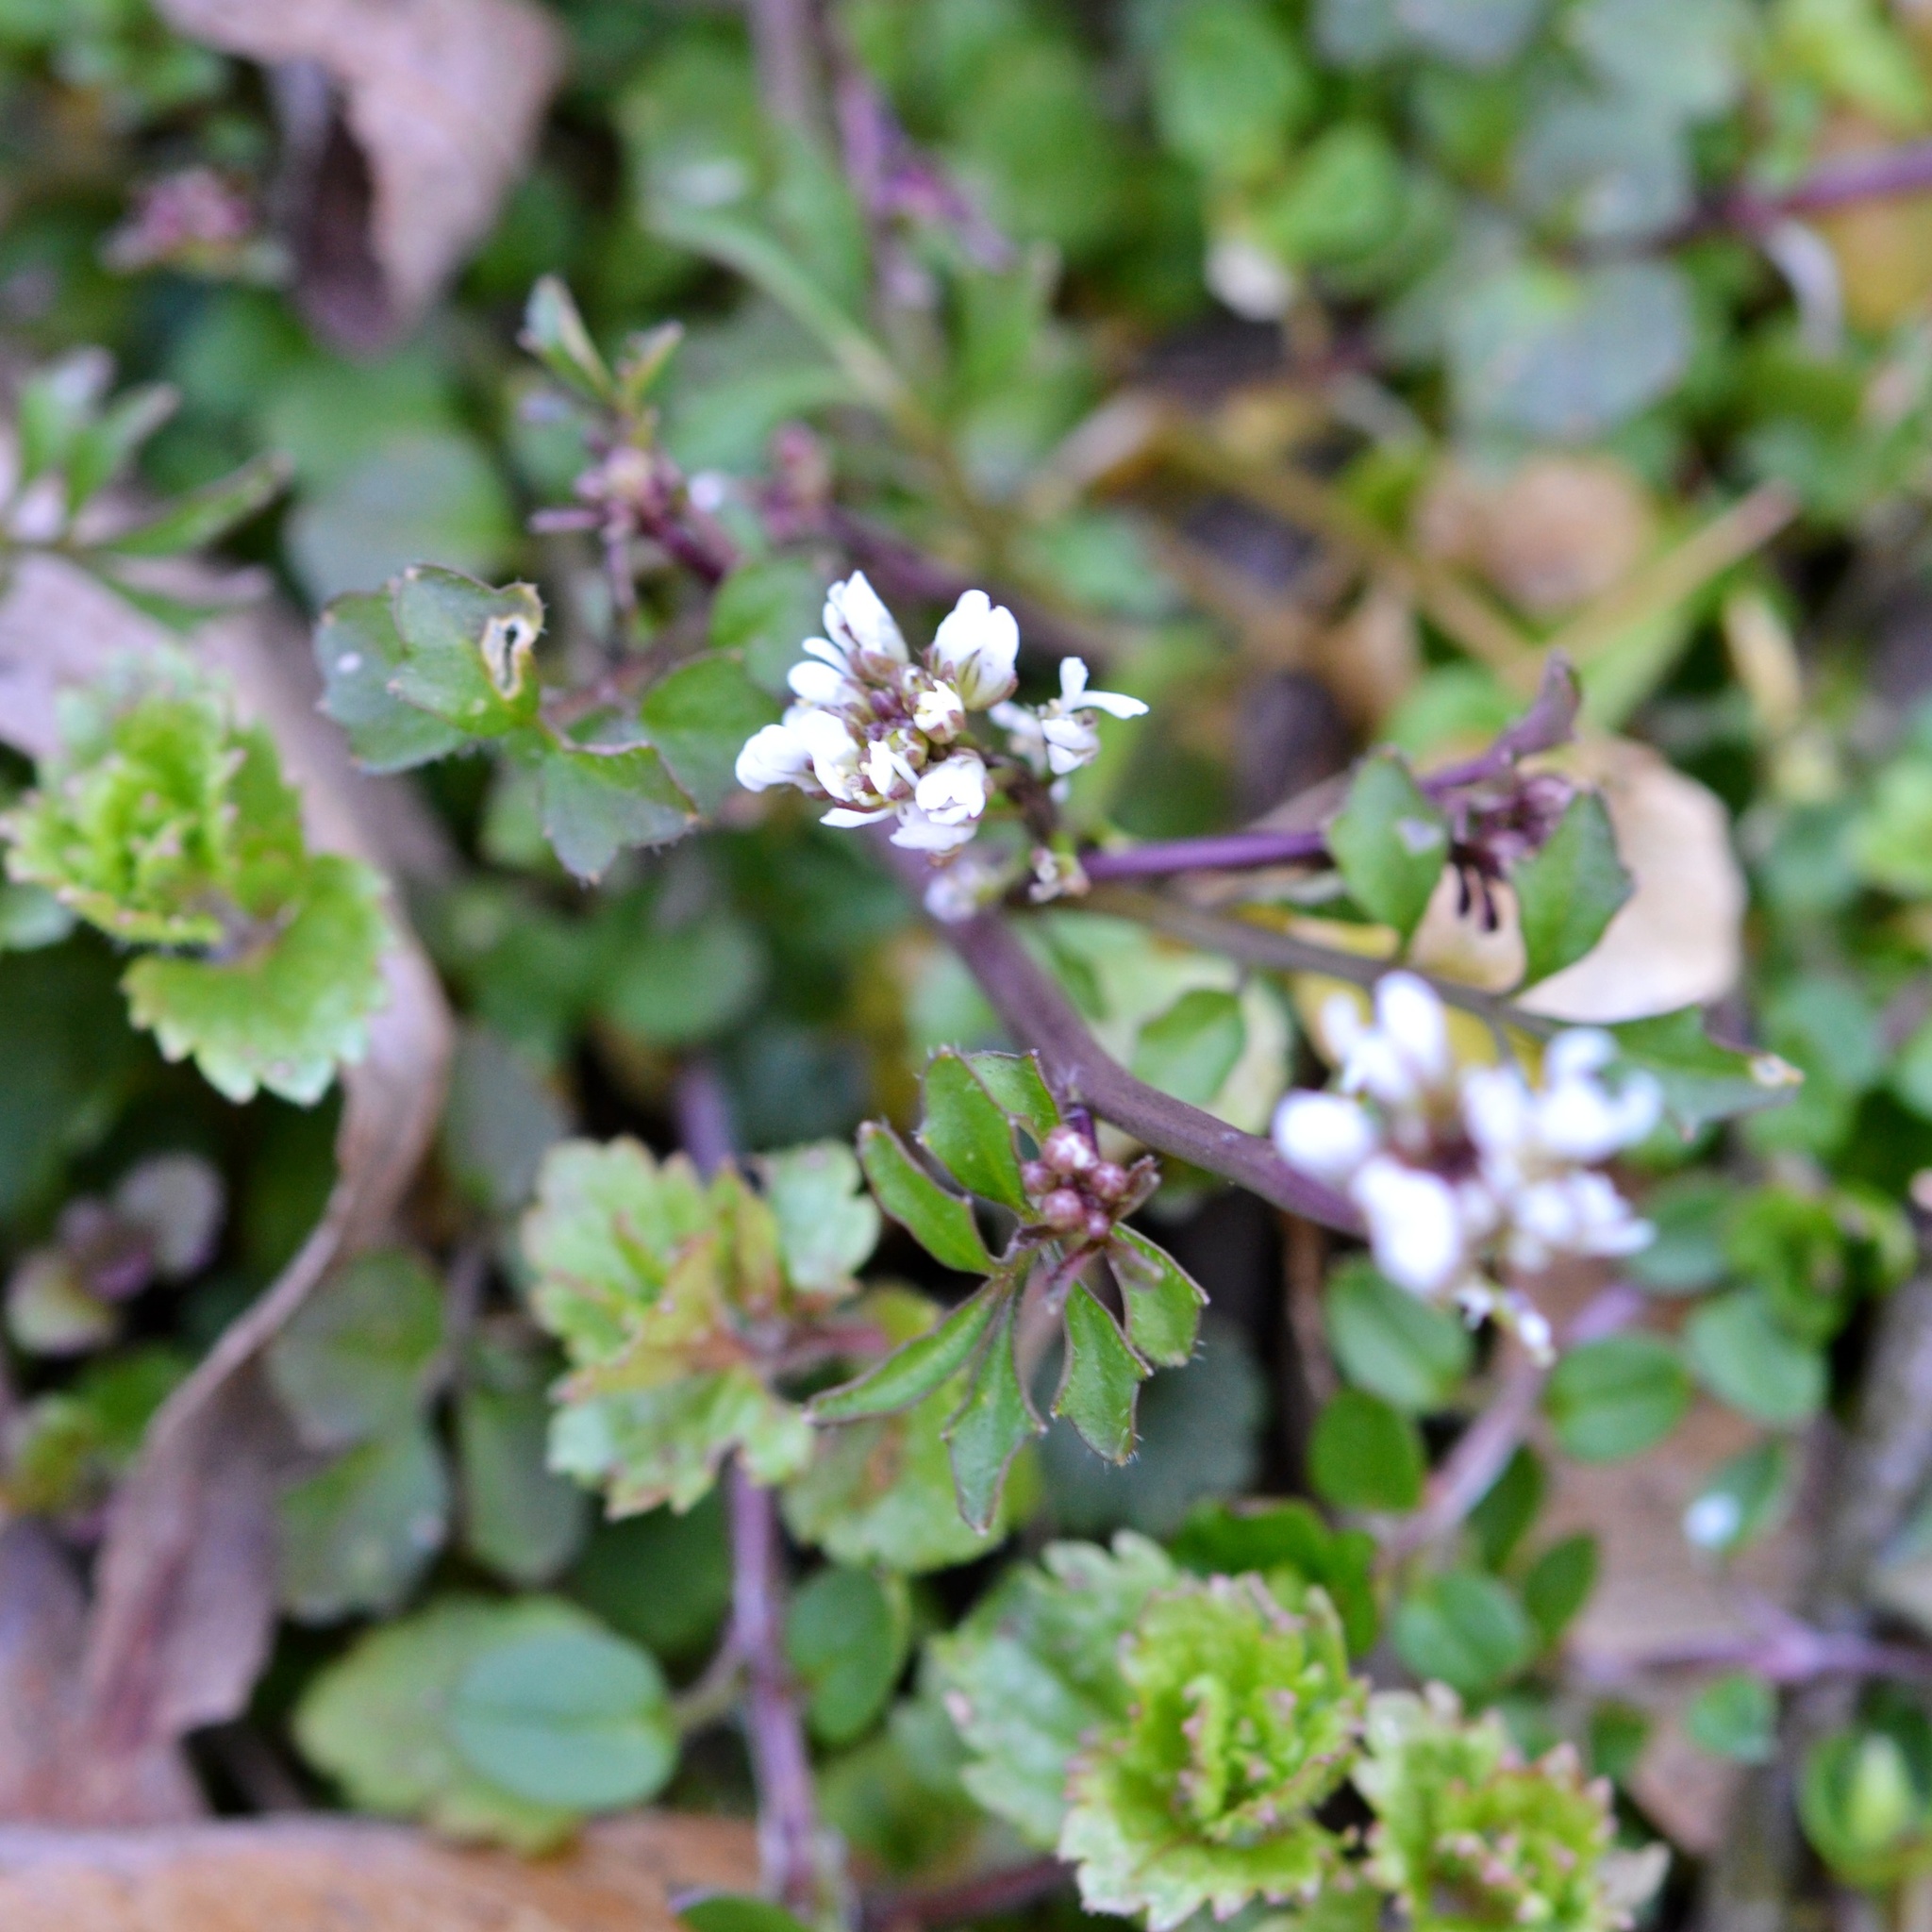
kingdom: Plantae
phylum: Tracheophyta
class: Magnoliopsida
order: Brassicales
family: Brassicaceae
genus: Cardamine
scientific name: Cardamine hirsuta
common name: Hairy bittercress
